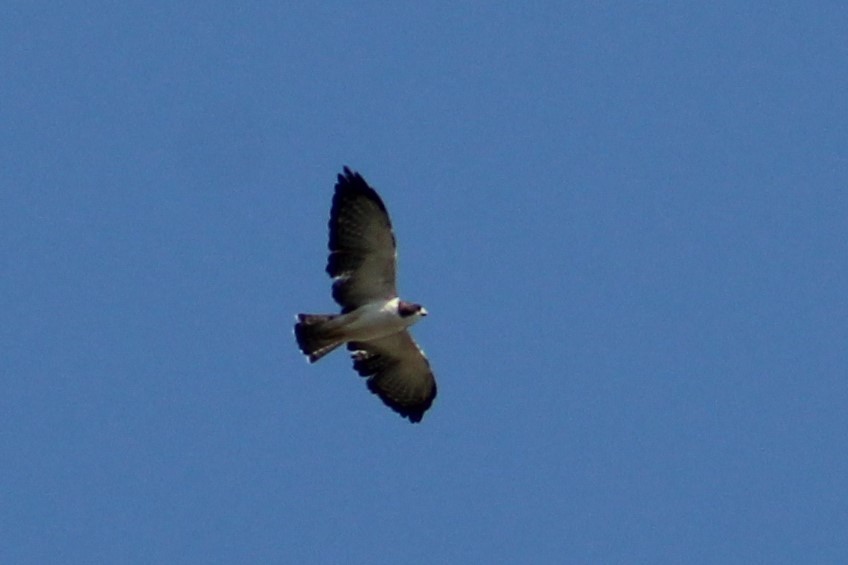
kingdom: Animalia
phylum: Chordata
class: Aves
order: Accipitriformes
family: Accipitridae
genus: Buteo
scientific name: Buteo brachyurus
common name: Short-tailed hawk
